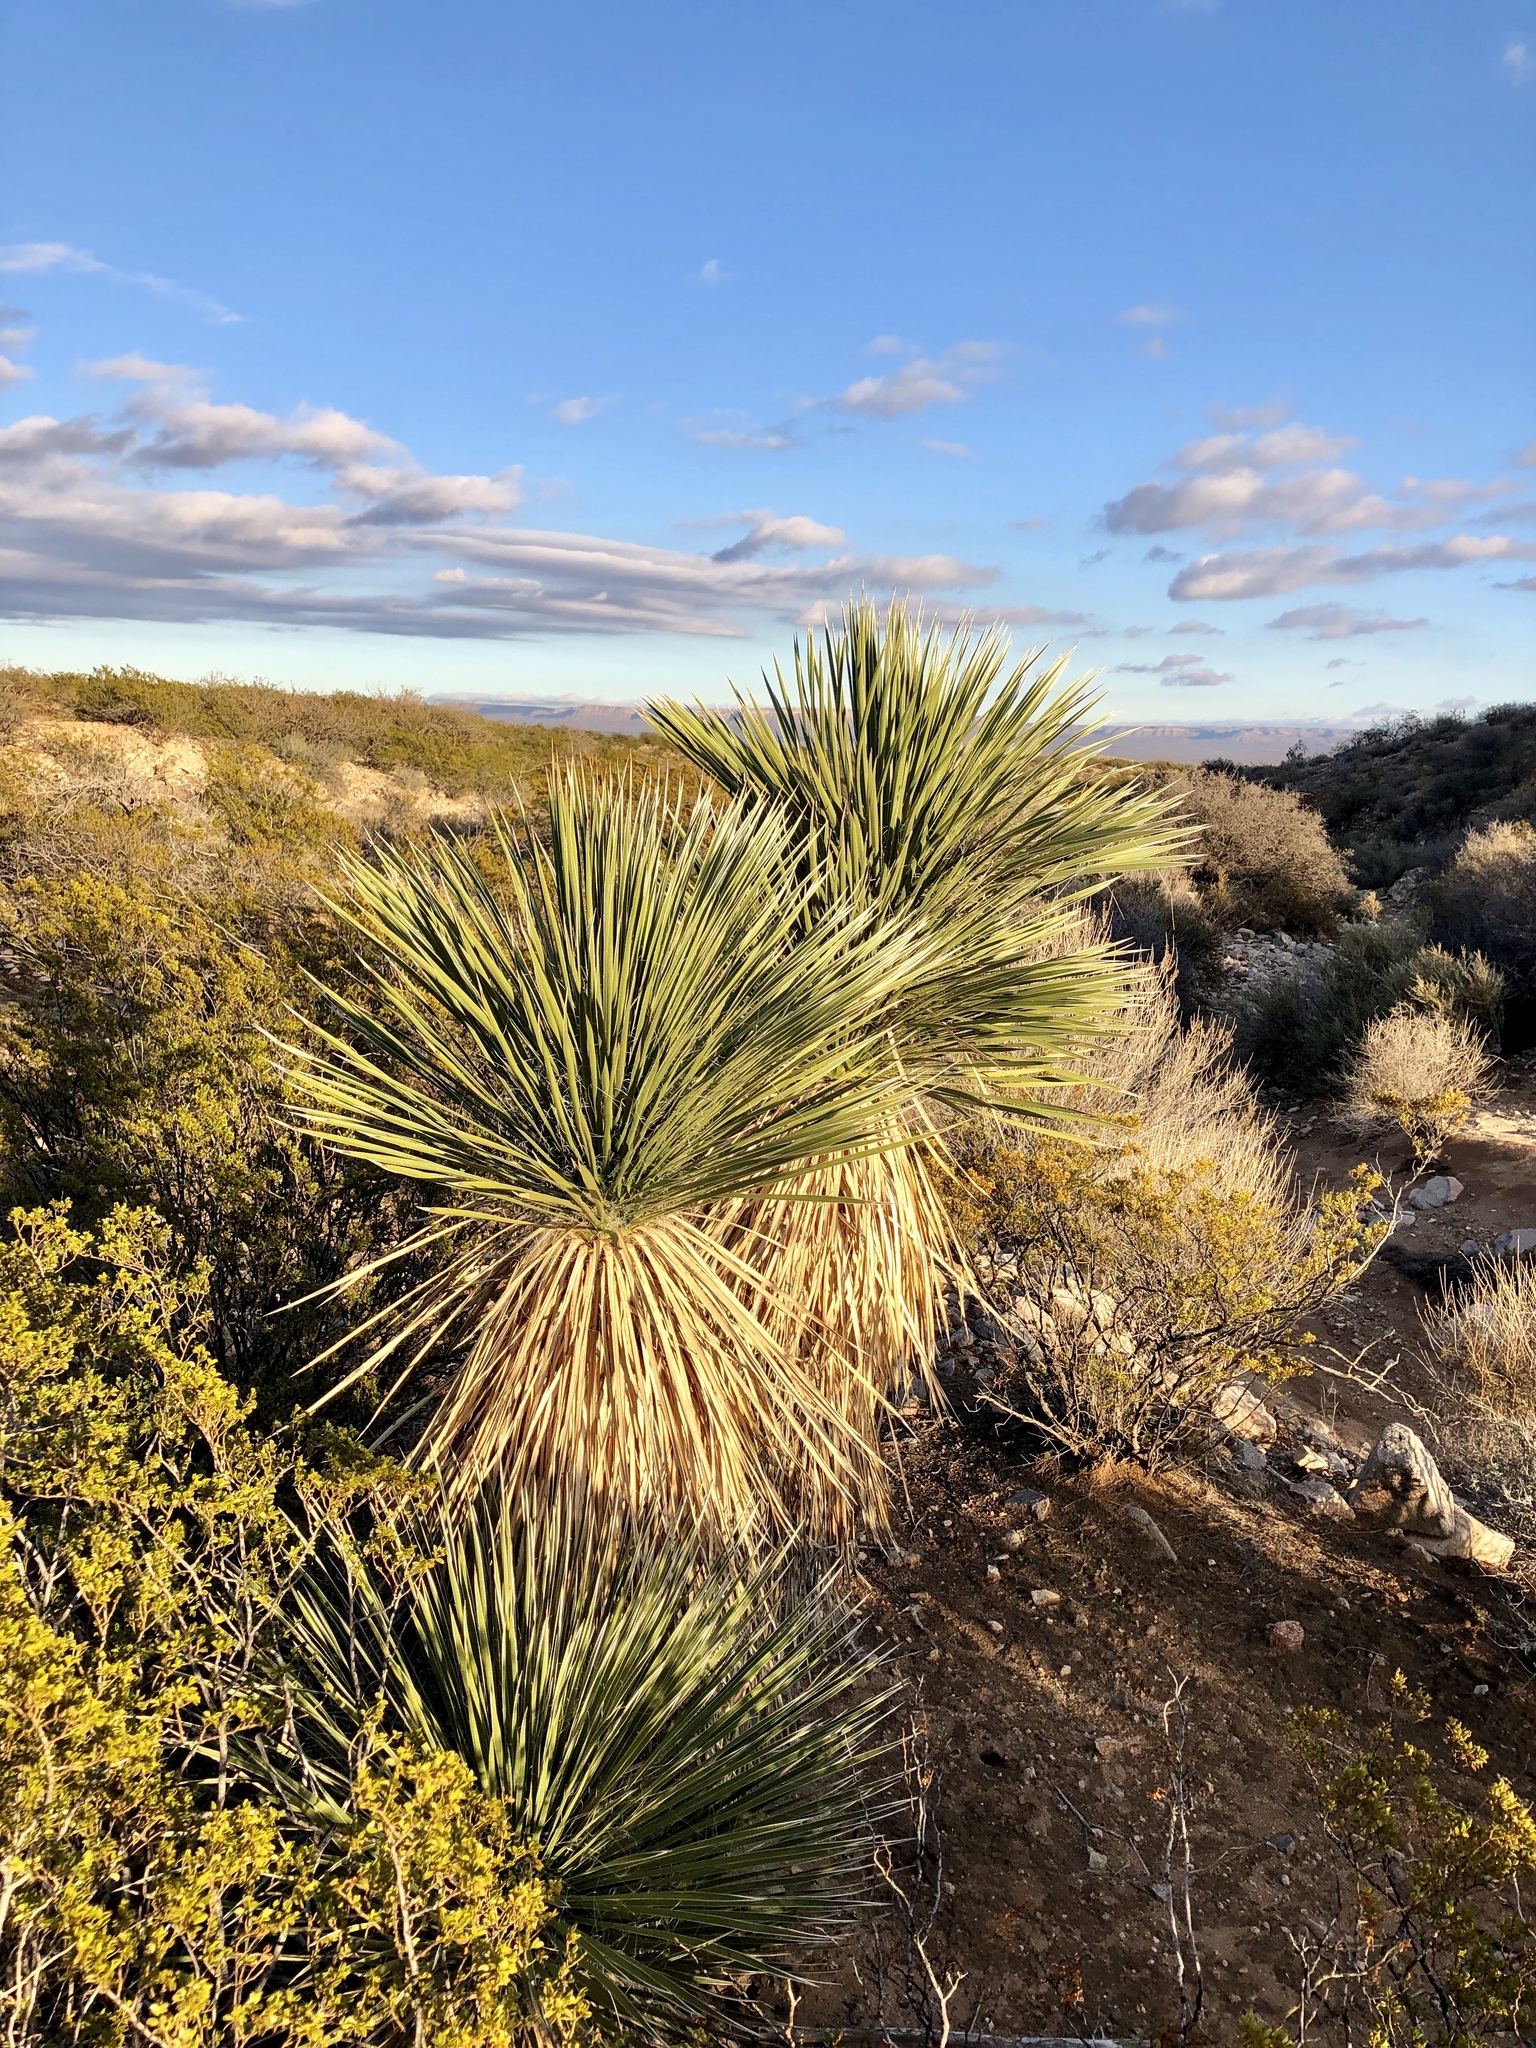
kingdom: Plantae
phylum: Tracheophyta
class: Liliopsida
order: Asparagales
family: Asparagaceae
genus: Yucca
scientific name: Yucca elata
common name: Palmella
